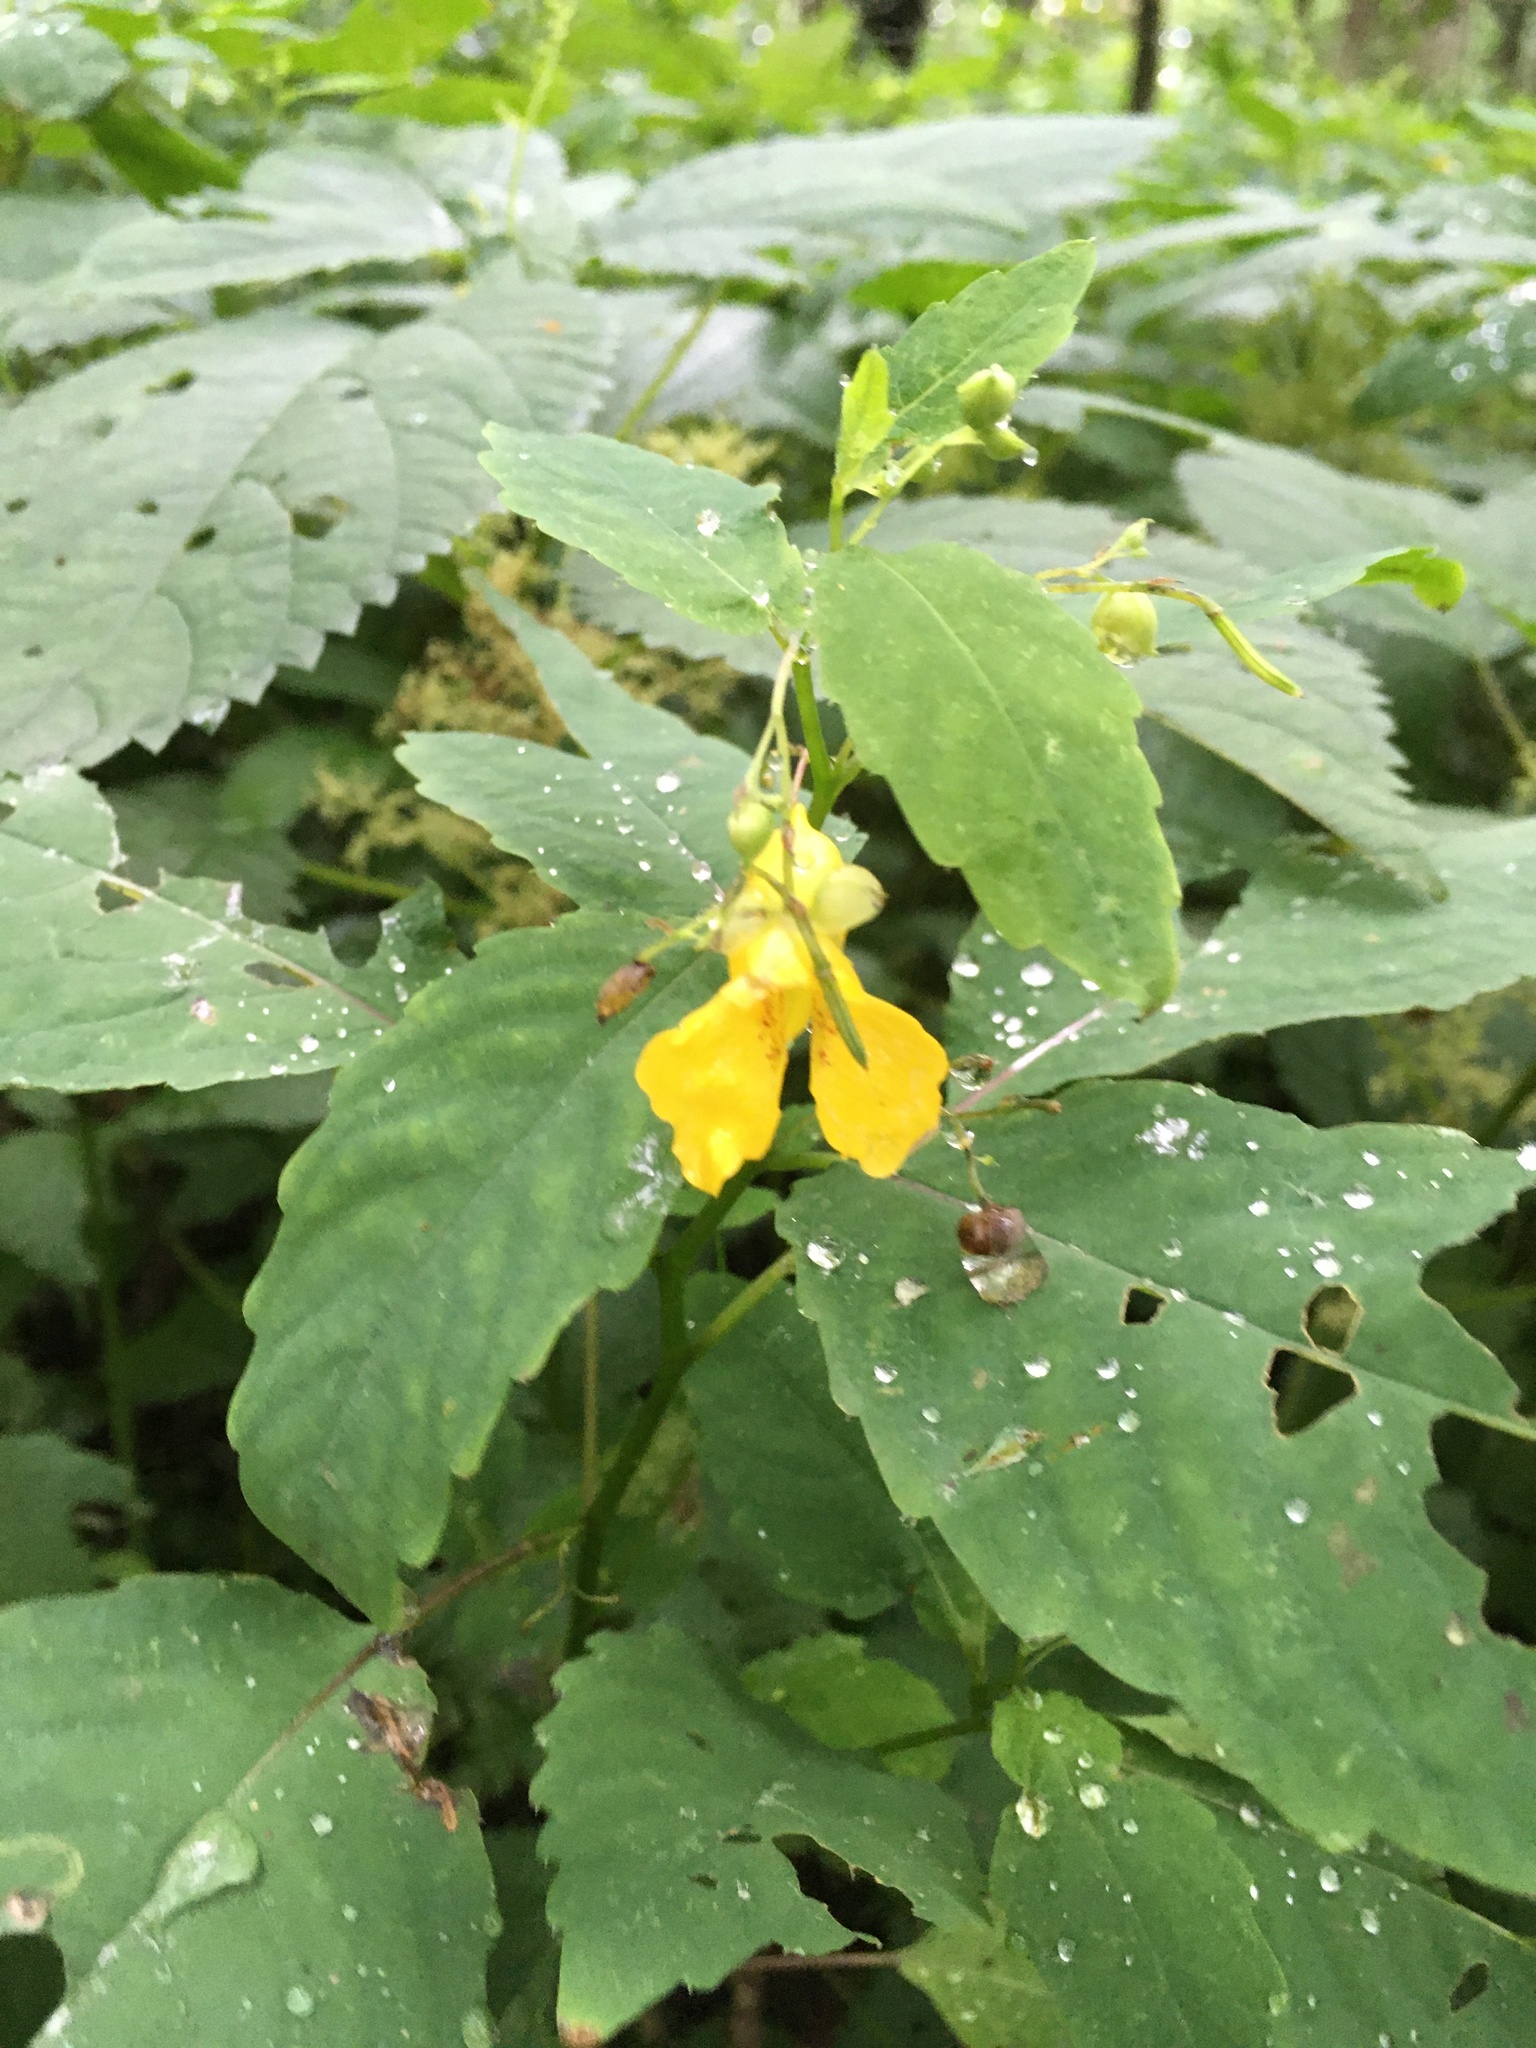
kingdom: Plantae
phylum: Tracheophyta
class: Magnoliopsida
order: Ericales
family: Balsaminaceae
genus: Impatiens
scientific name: Impatiens pallida
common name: Pale snapweed
